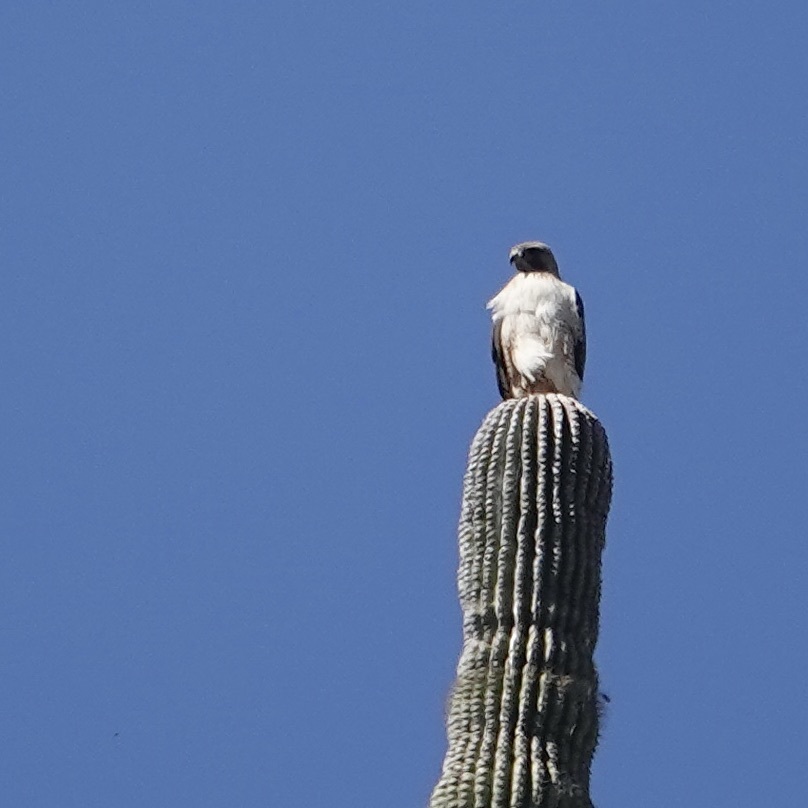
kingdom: Animalia
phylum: Chordata
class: Aves
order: Accipitriformes
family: Accipitridae
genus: Buteo
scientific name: Buteo jamaicensis
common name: Red-tailed hawk
